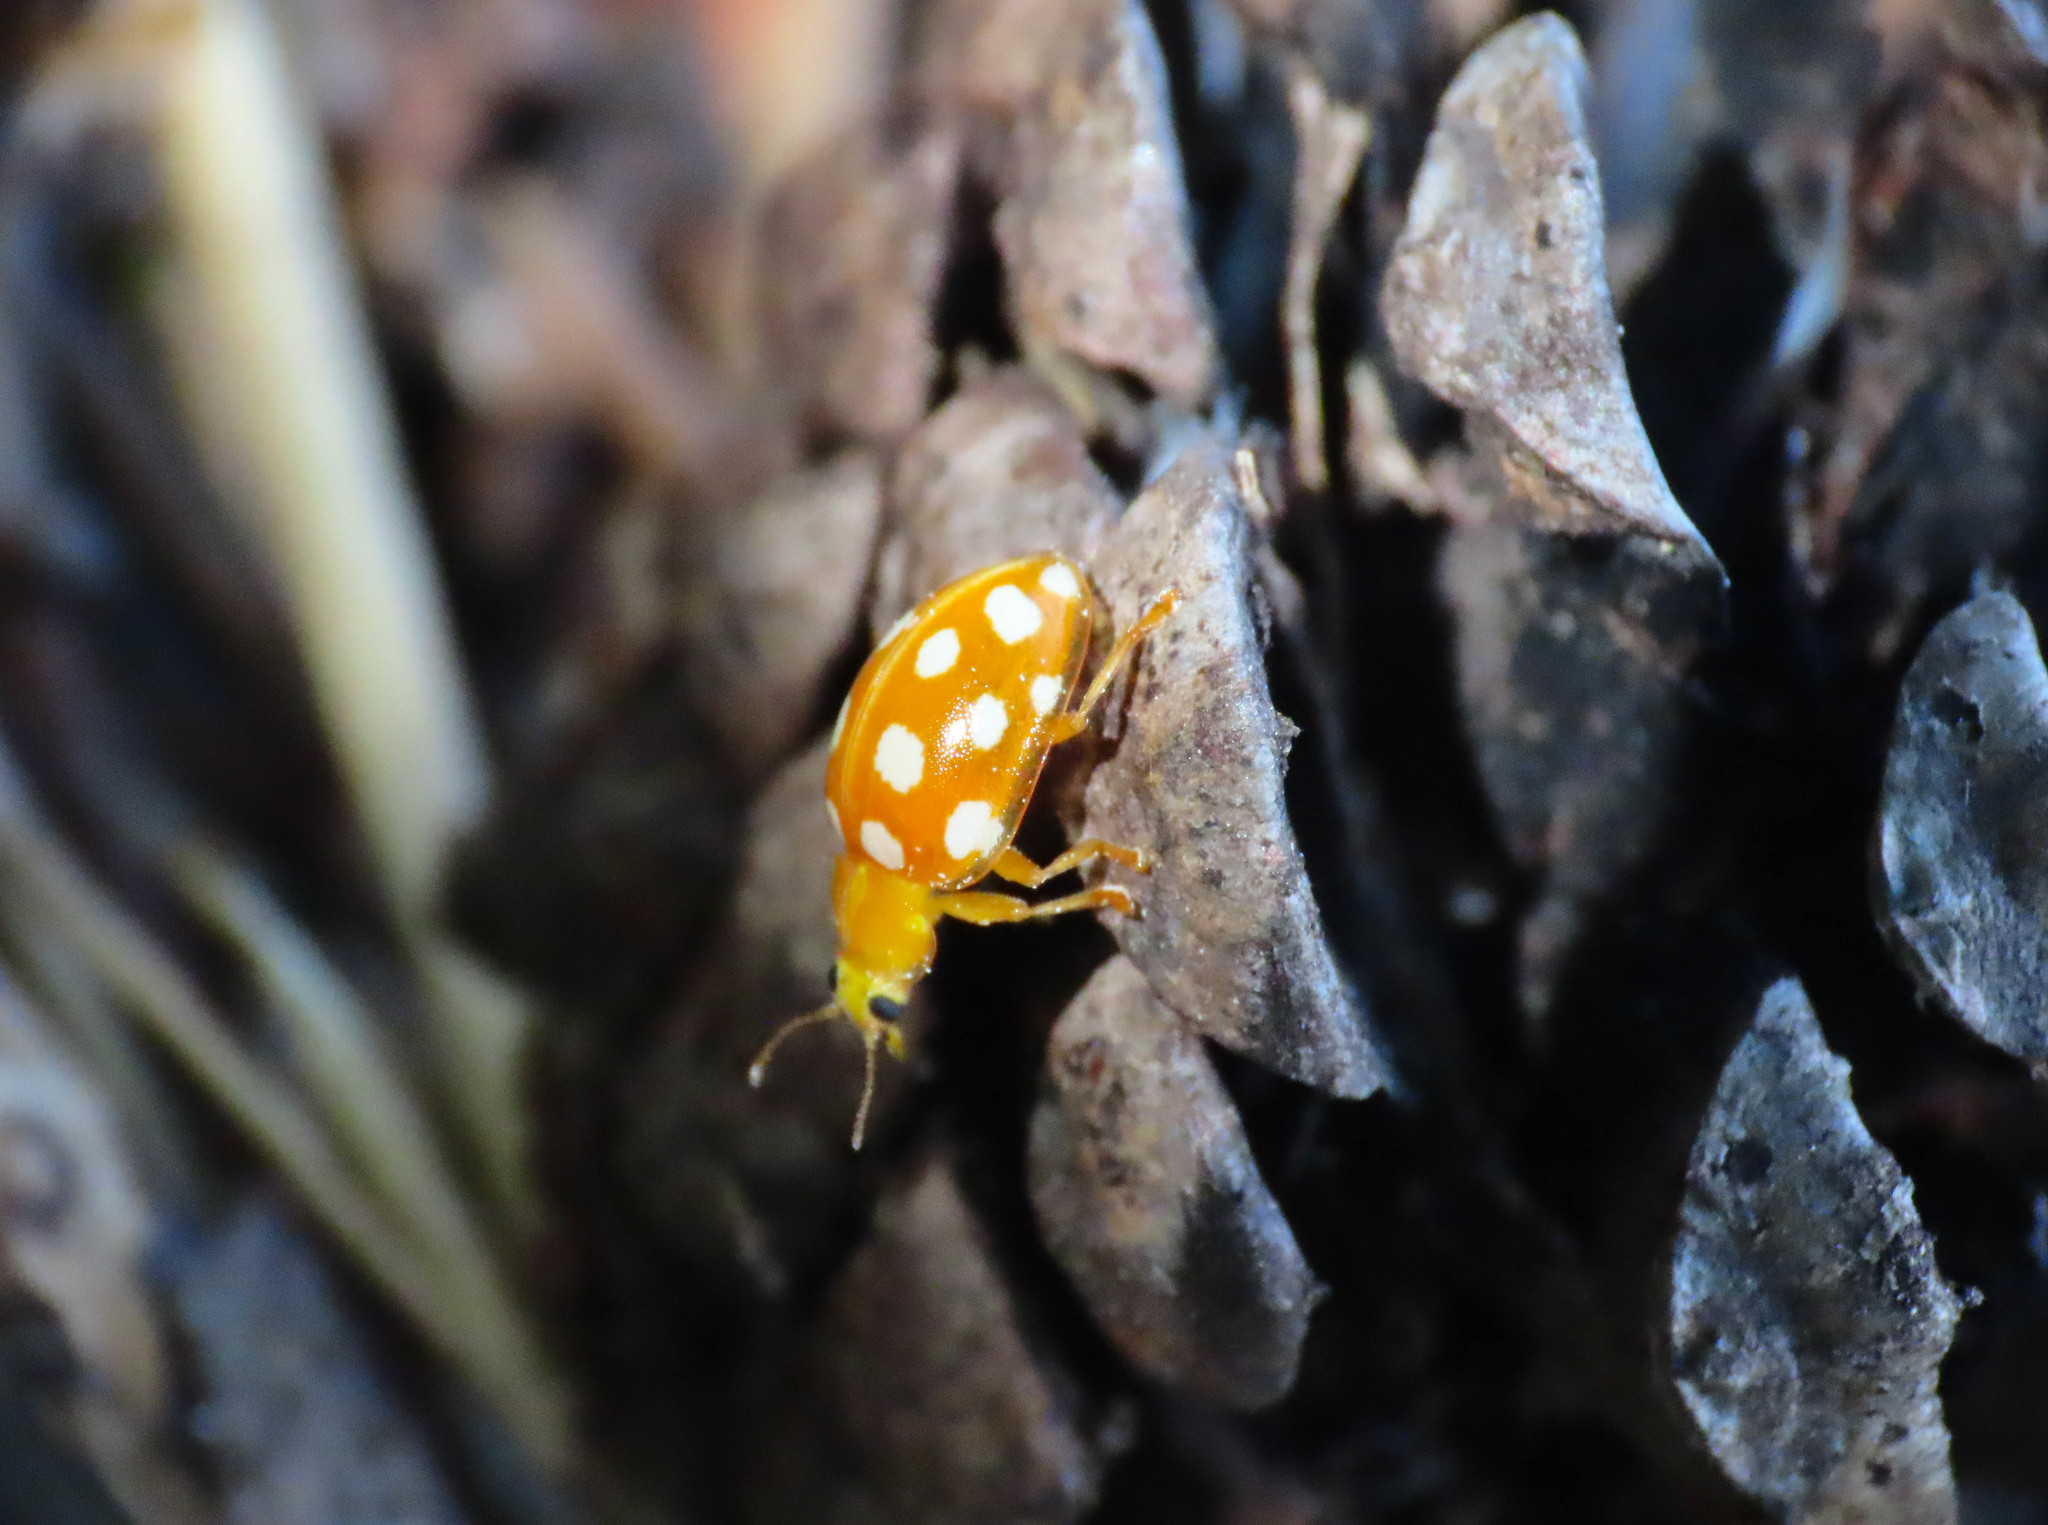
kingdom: Animalia
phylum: Arthropoda
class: Insecta
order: Coleoptera
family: Coccinellidae
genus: Halyzia
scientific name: Halyzia sedecimguttata
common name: Orange ladybird
